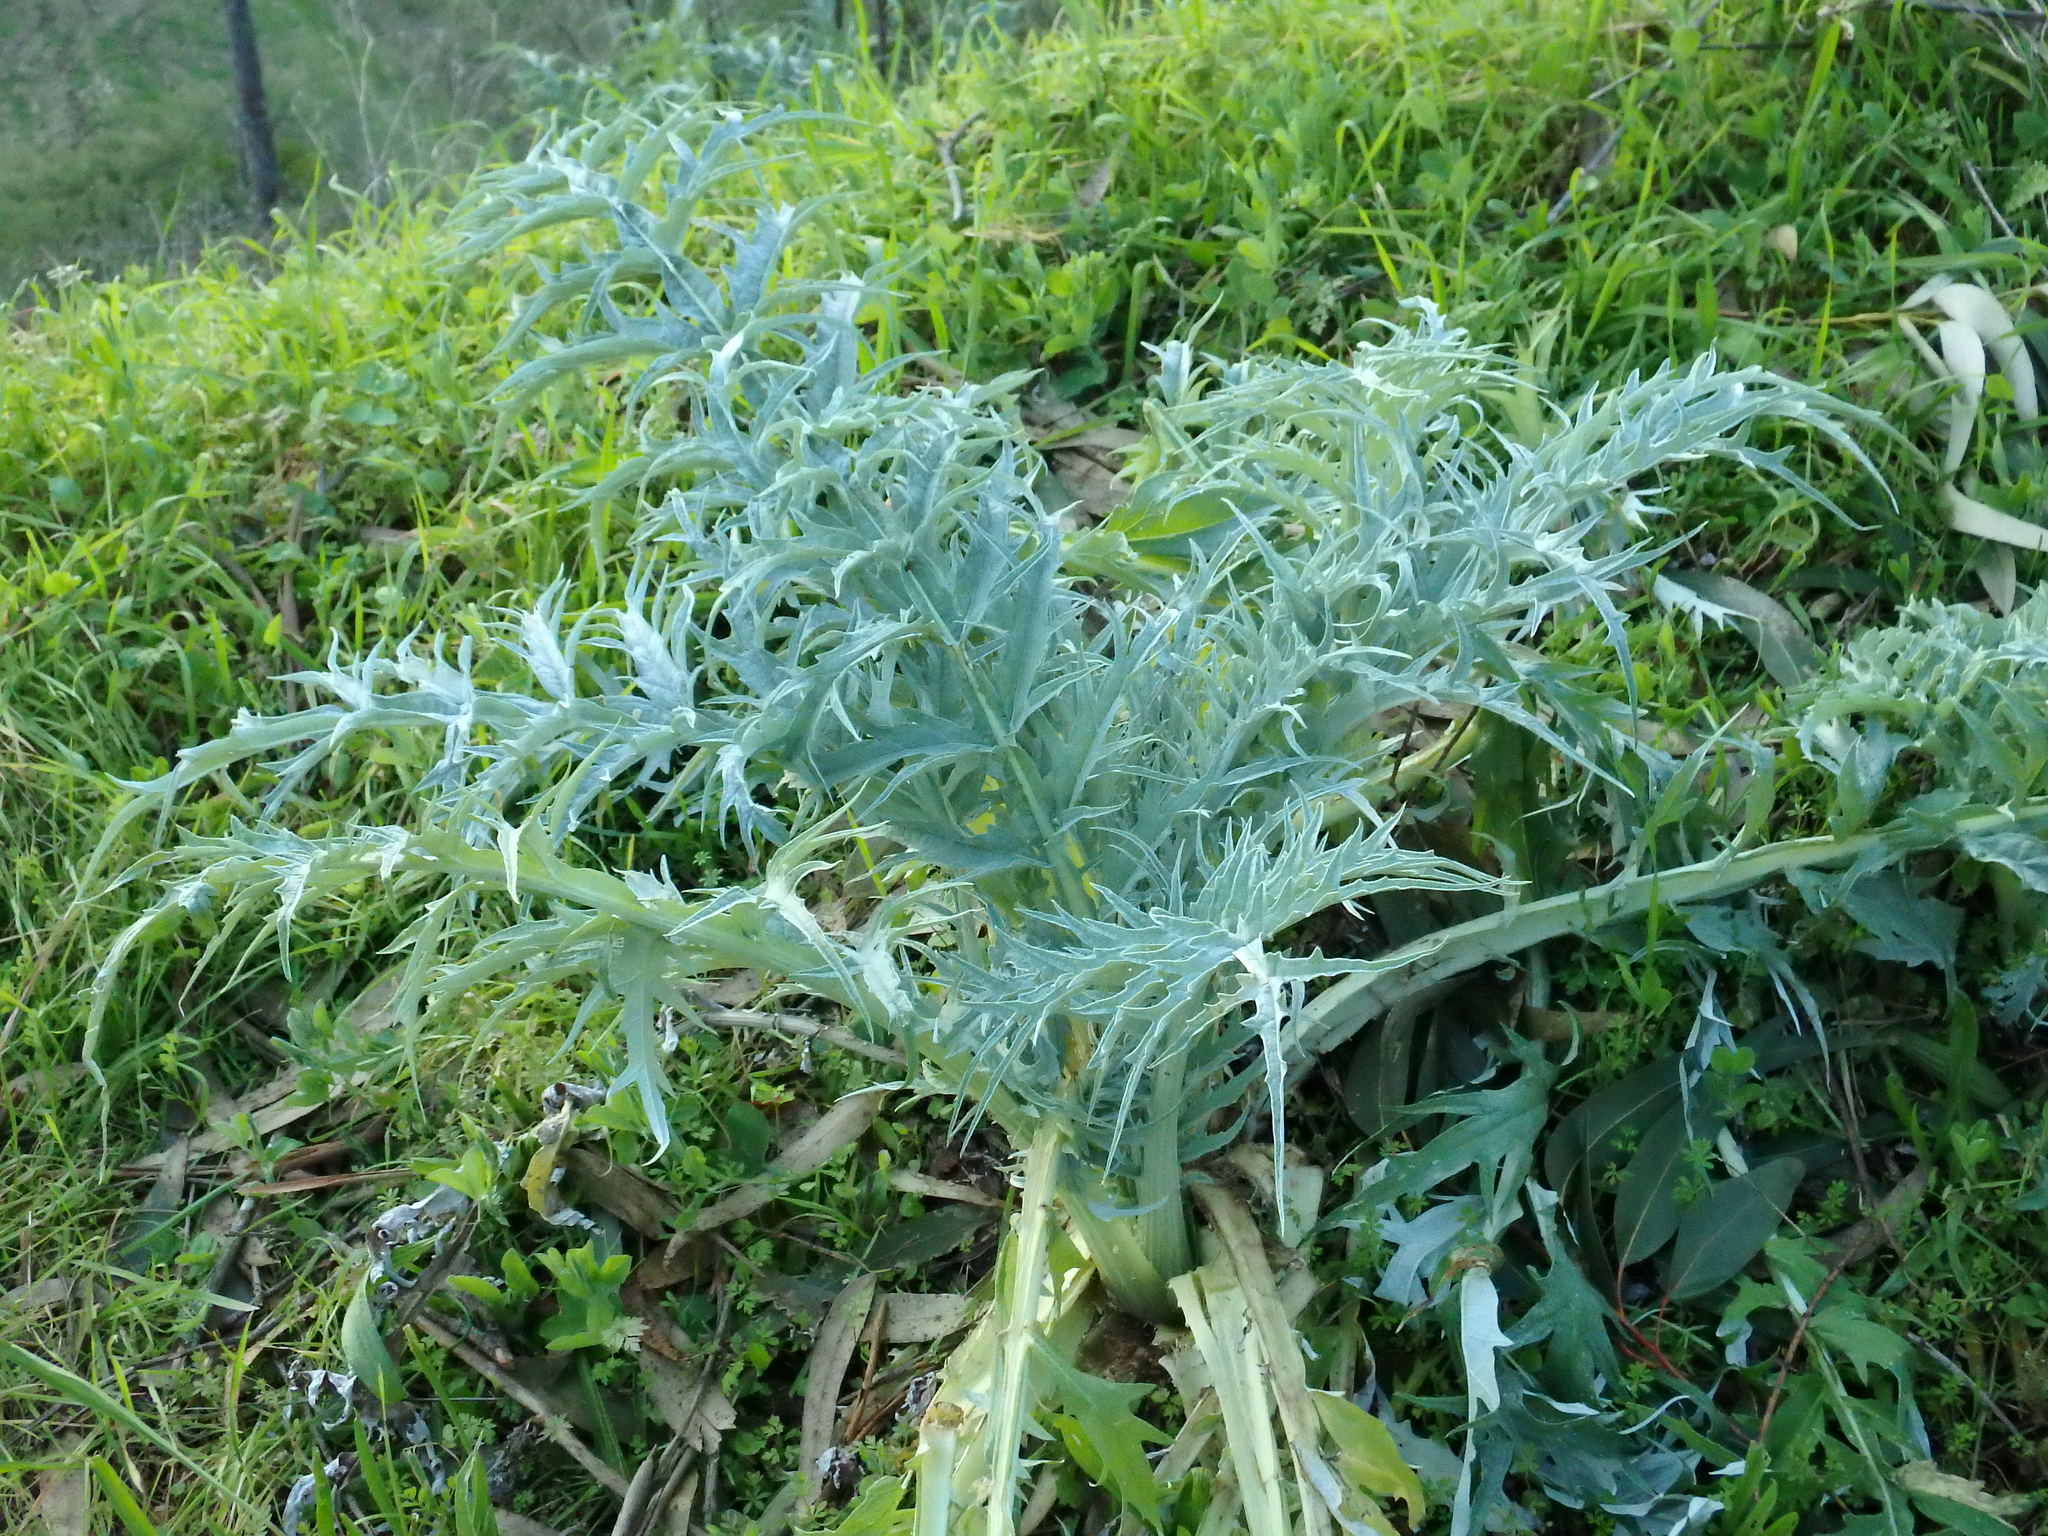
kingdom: Plantae
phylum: Tracheophyta
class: Magnoliopsida
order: Asterales
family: Asteraceae
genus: Cynara
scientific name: Cynara cardunculus
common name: Globe artichoke
